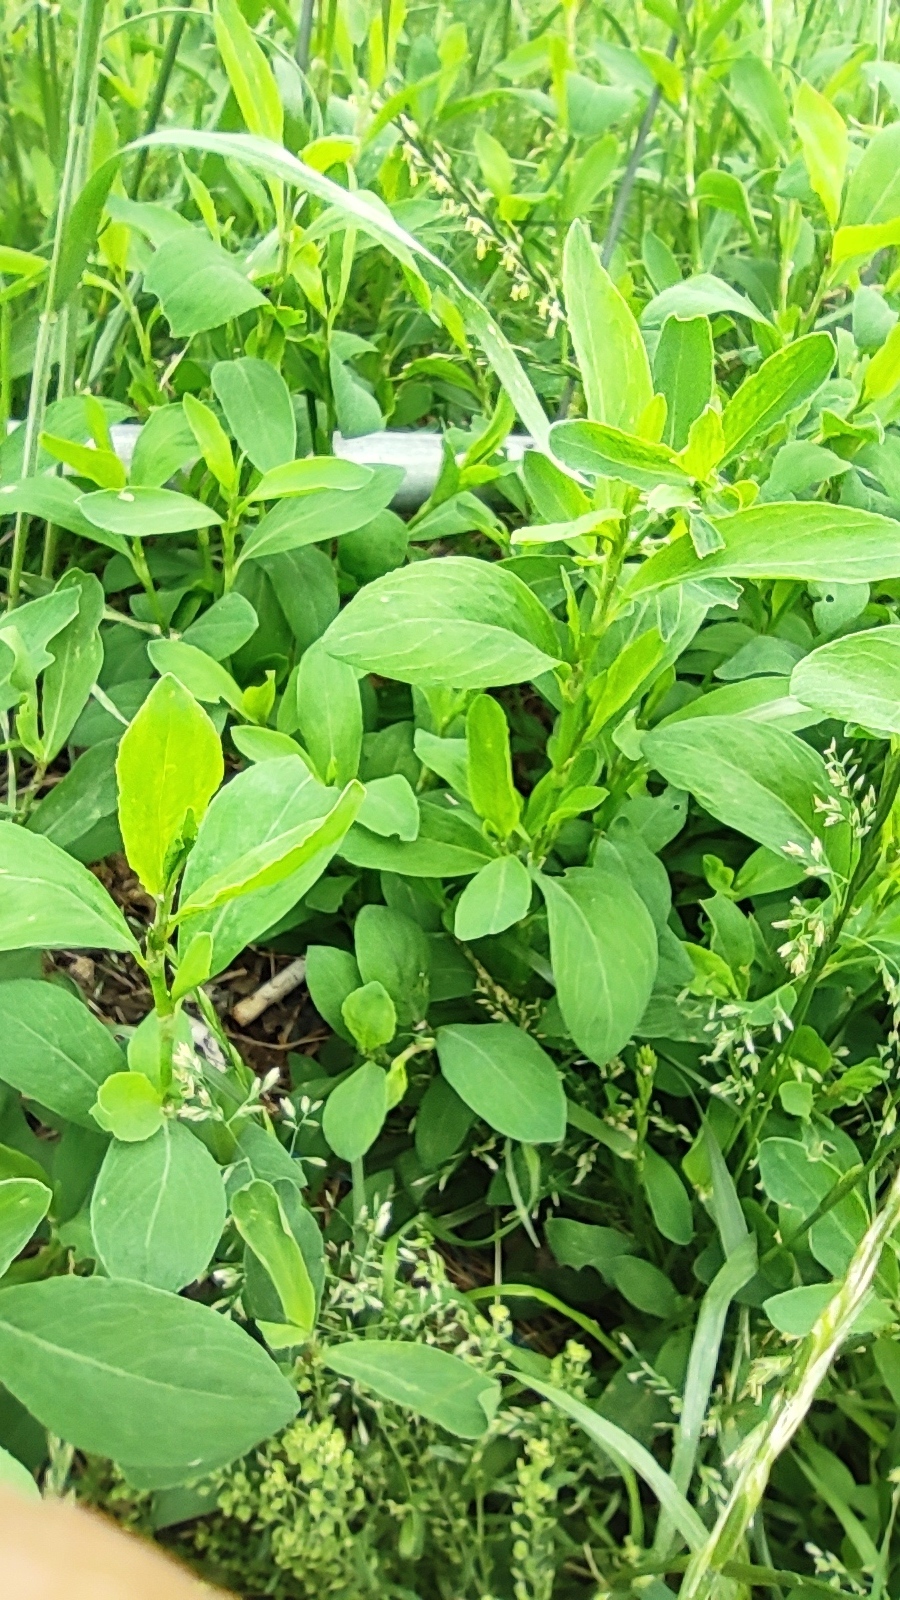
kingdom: Plantae
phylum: Tracheophyta
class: Magnoliopsida
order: Caryophyllales
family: Polygonaceae
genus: Polygonum
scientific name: Polygonum aviculare
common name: Prostrate knotweed
